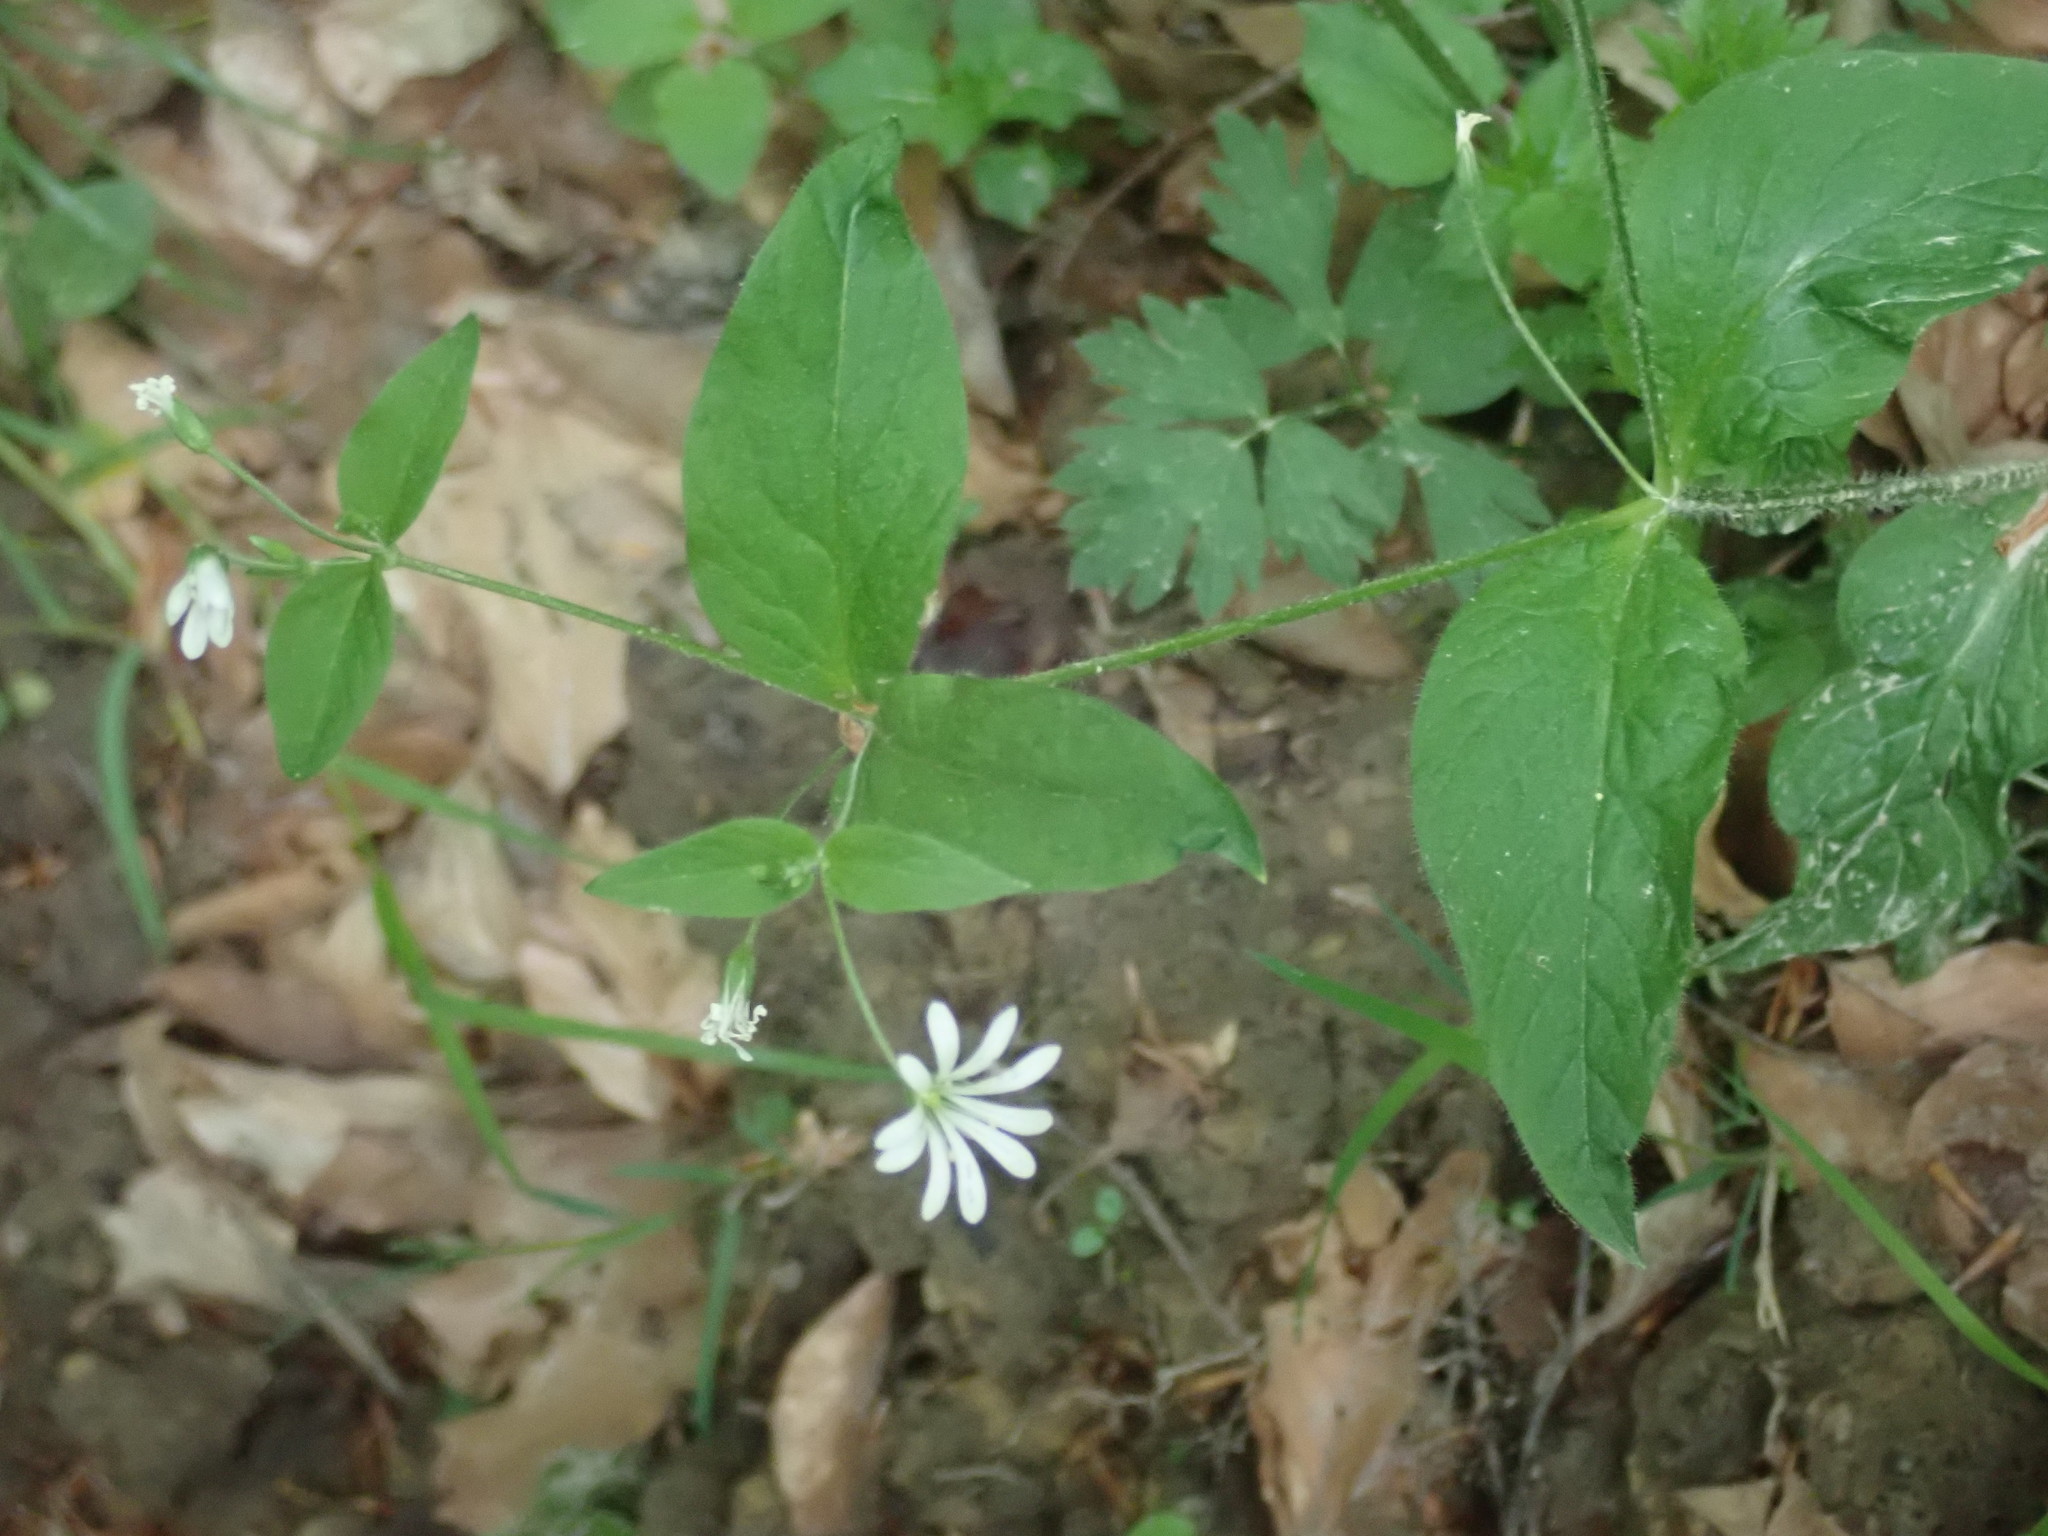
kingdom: Plantae
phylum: Tracheophyta
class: Magnoliopsida
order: Caryophyllales
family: Caryophyllaceae
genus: Stellaria
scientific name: Stellaria nemorum
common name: Wood stitchwort
